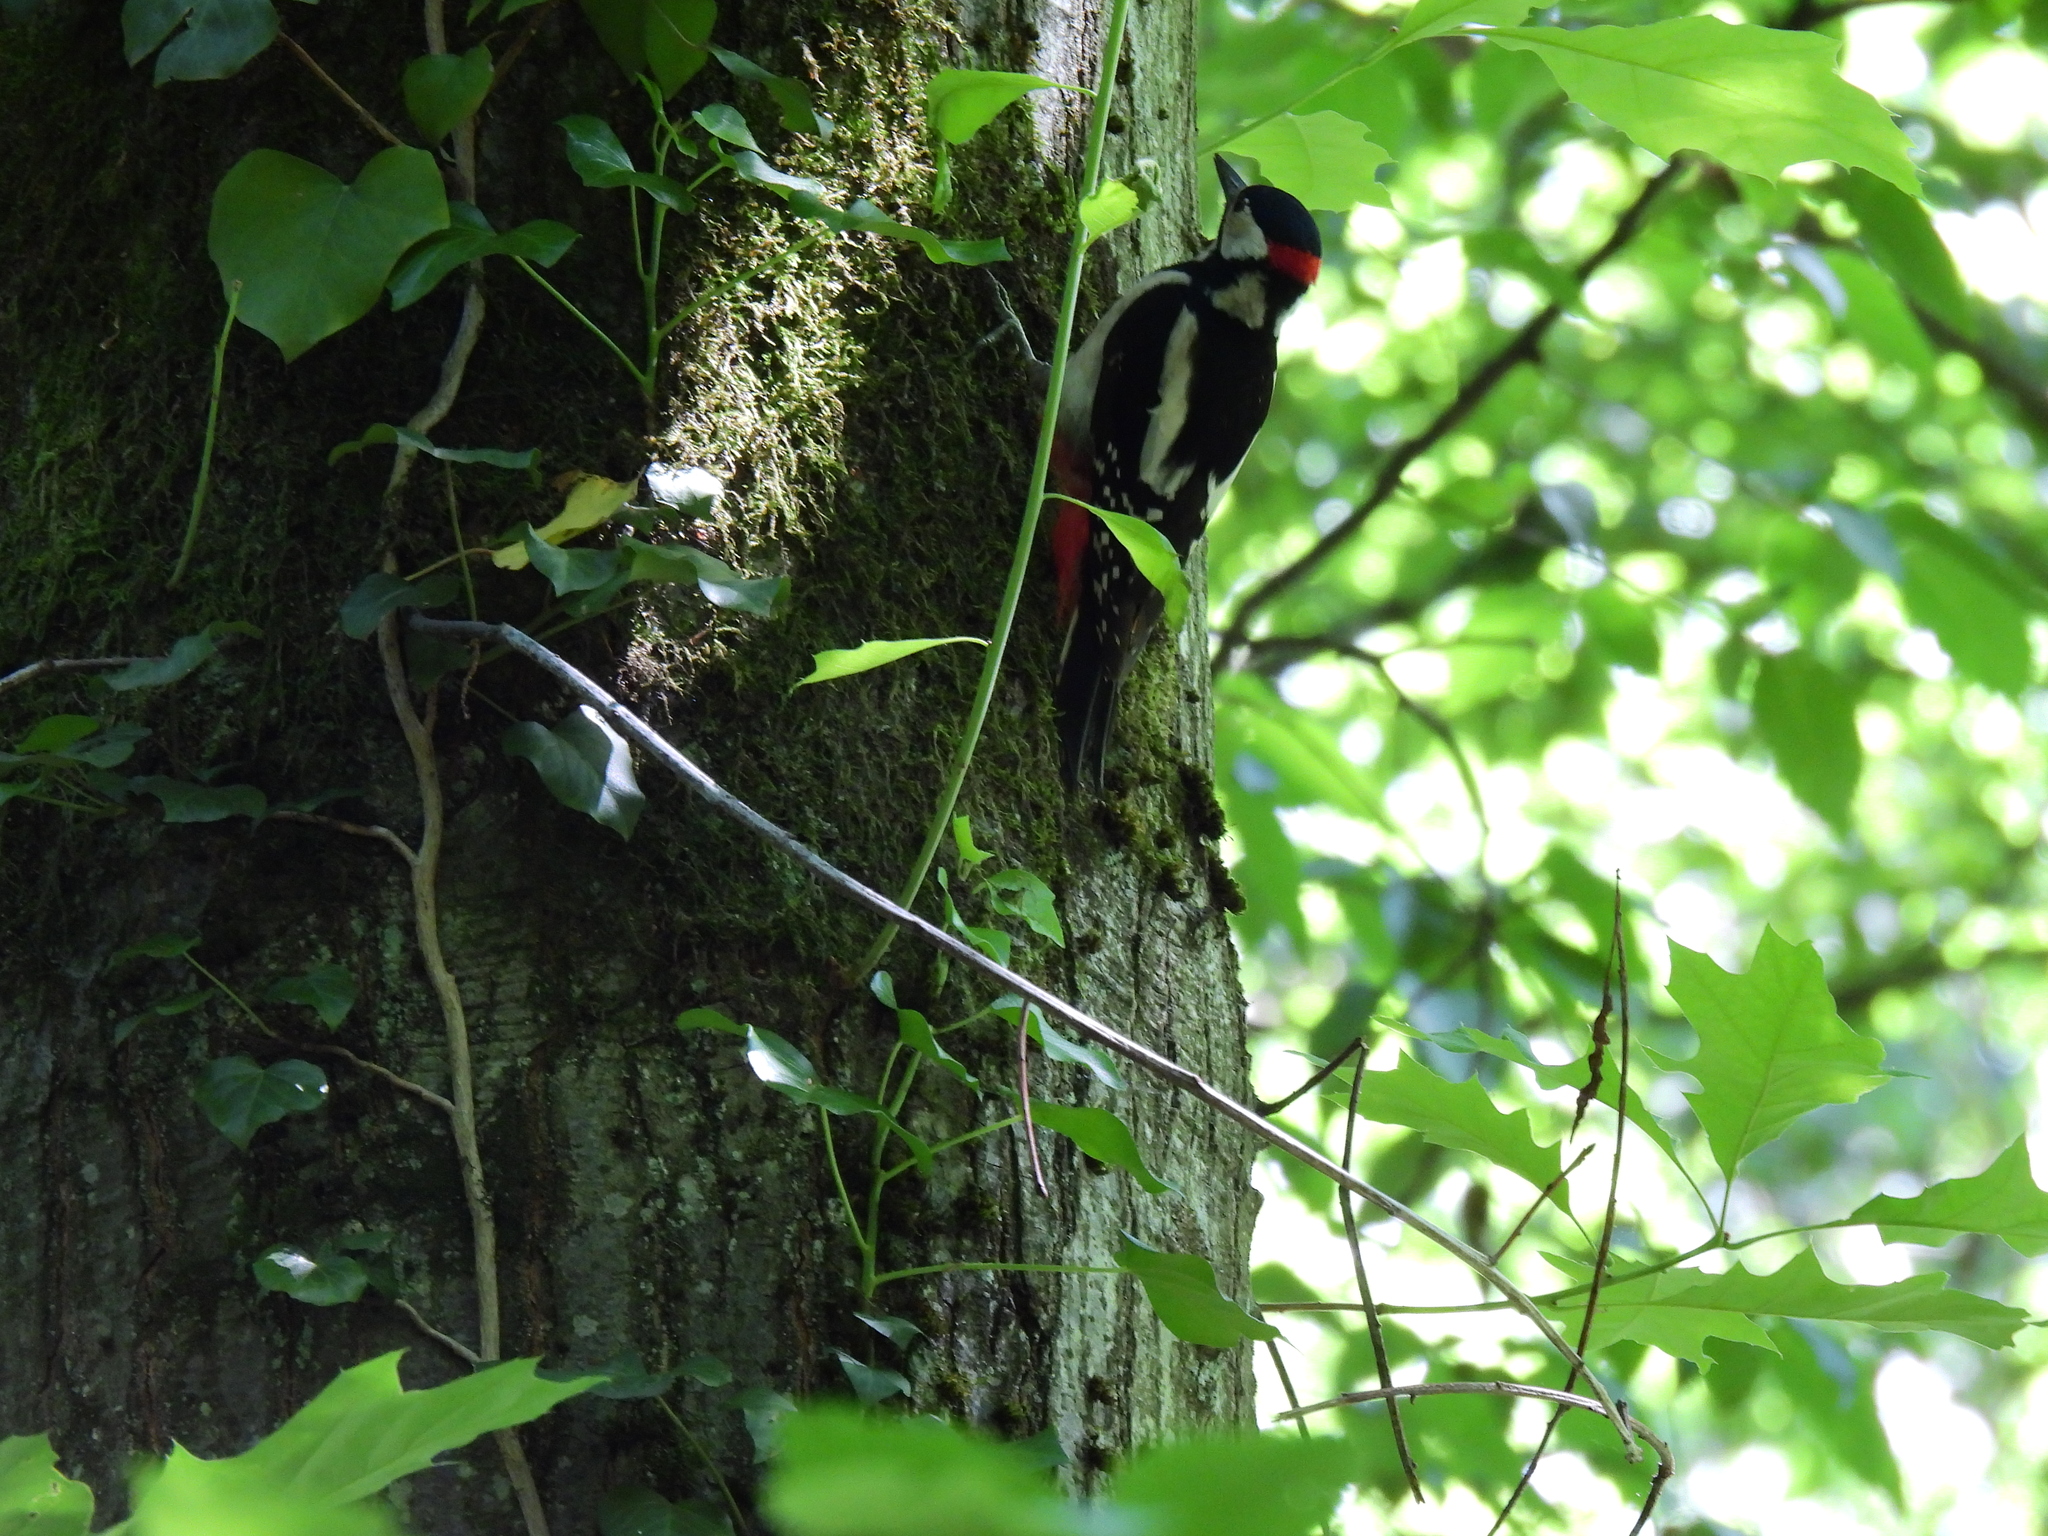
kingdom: Animalia
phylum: Chordata
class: Aves
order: Piciformes
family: Picidae
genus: Dendrocopos
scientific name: Dendrocopos major
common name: Great spotted woodpecker
